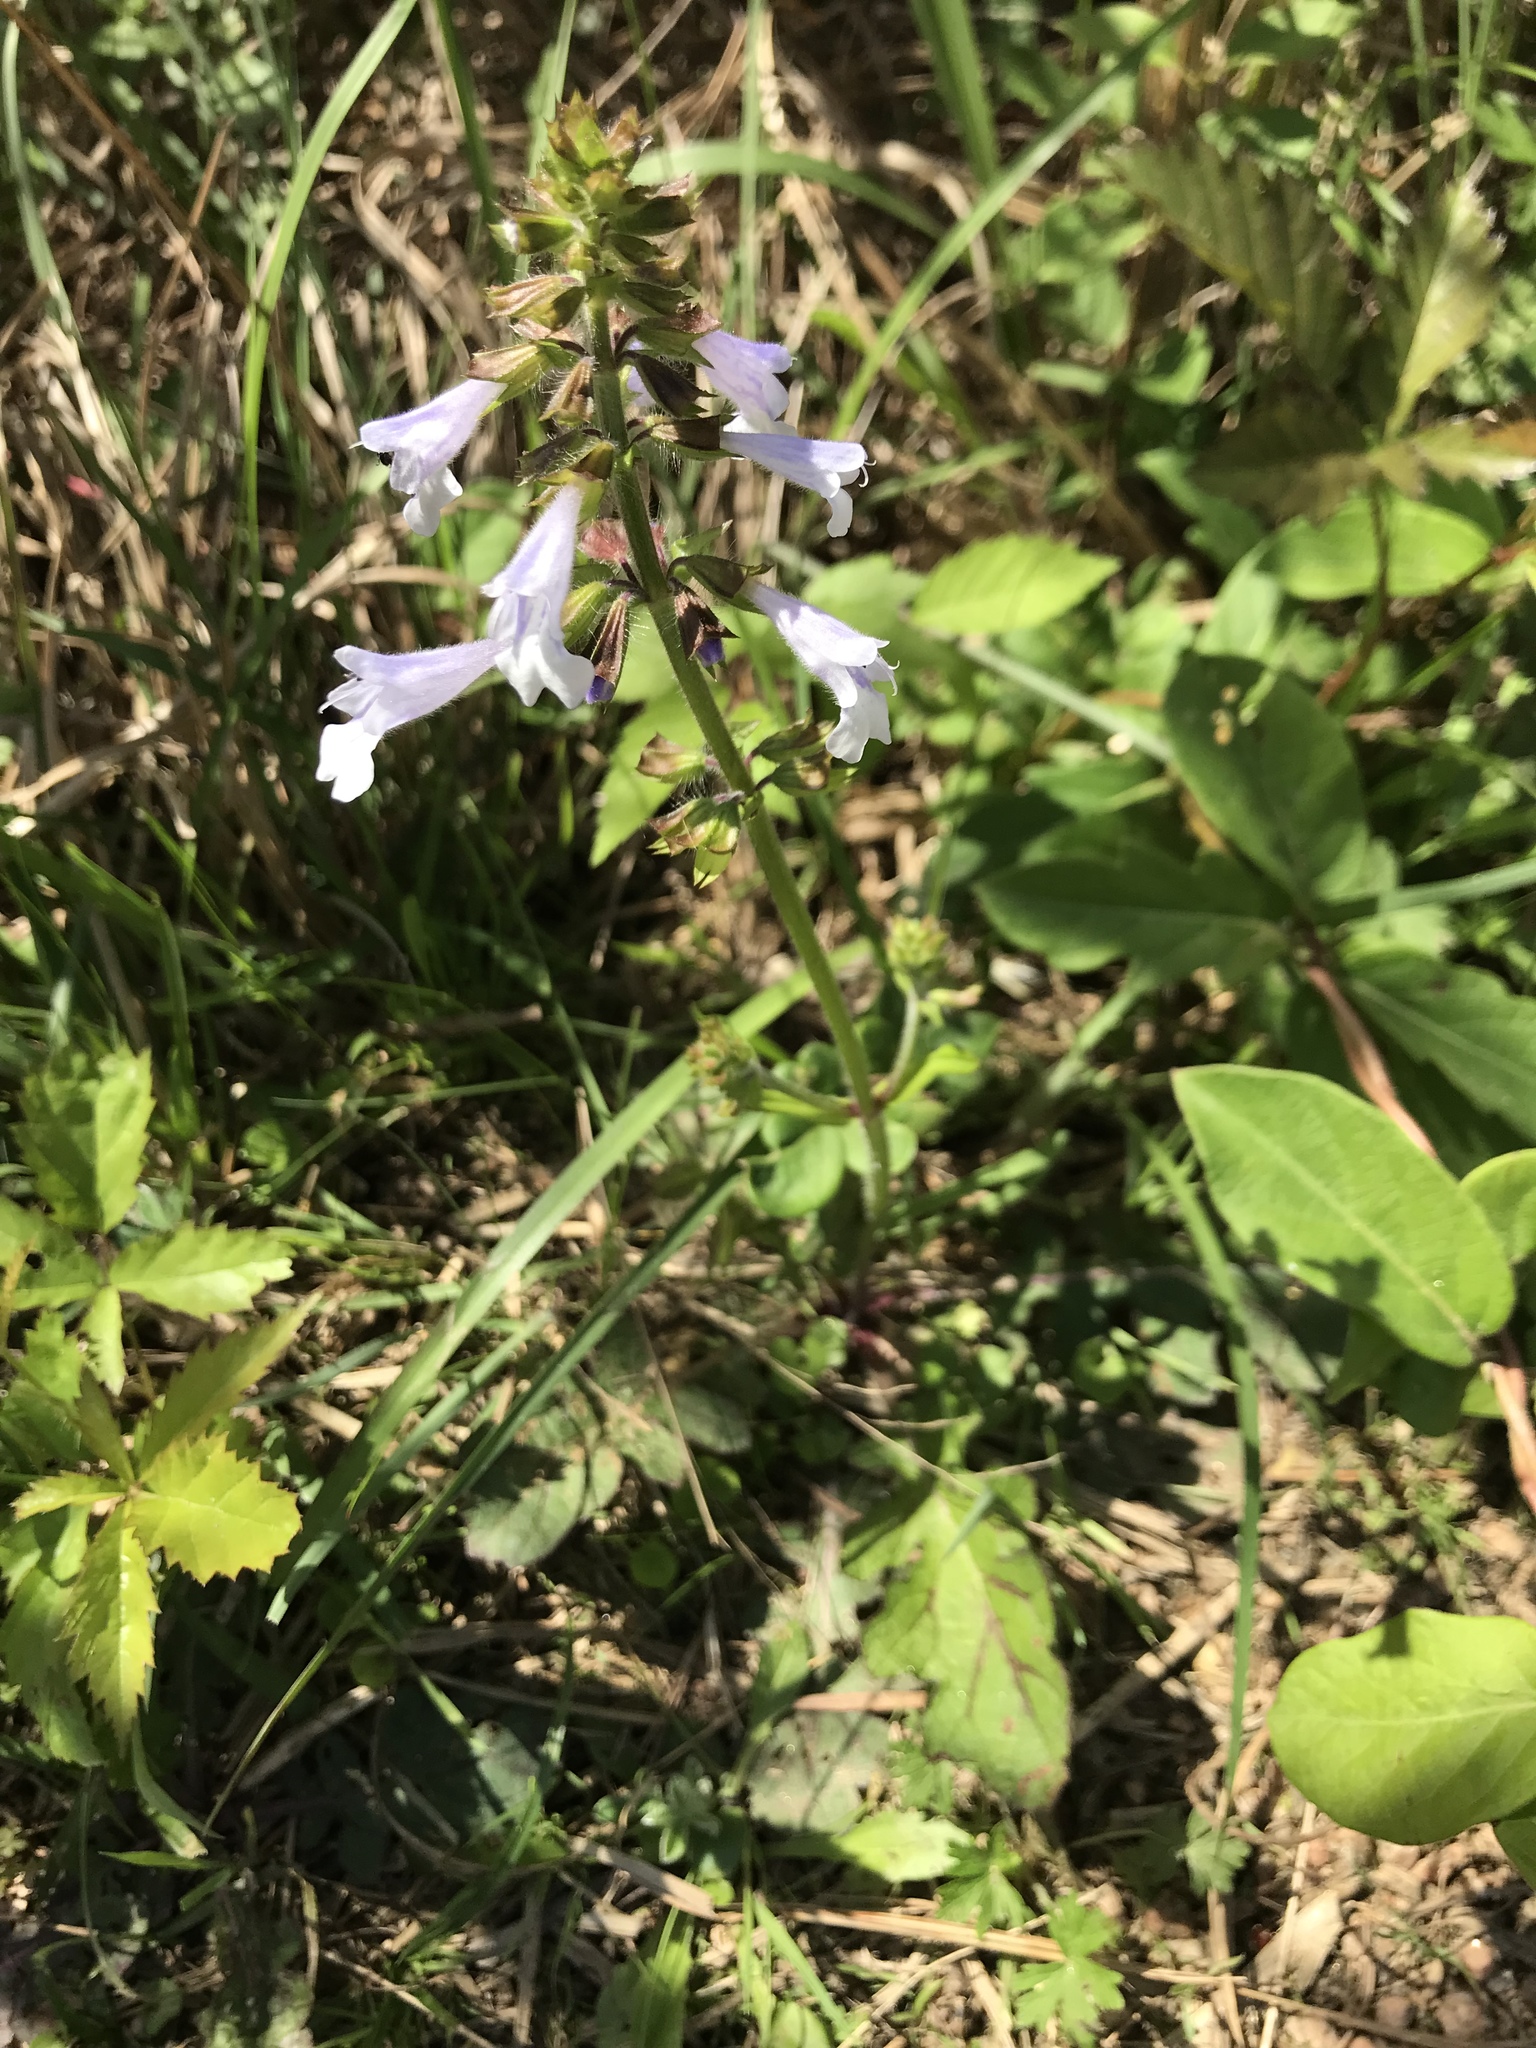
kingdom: Plantae
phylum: Tracheophyta
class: Magnoliopsida
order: Lamiales
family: Lamiaceae
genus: Salvia
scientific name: Salvia lyrata
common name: Cancerweed
